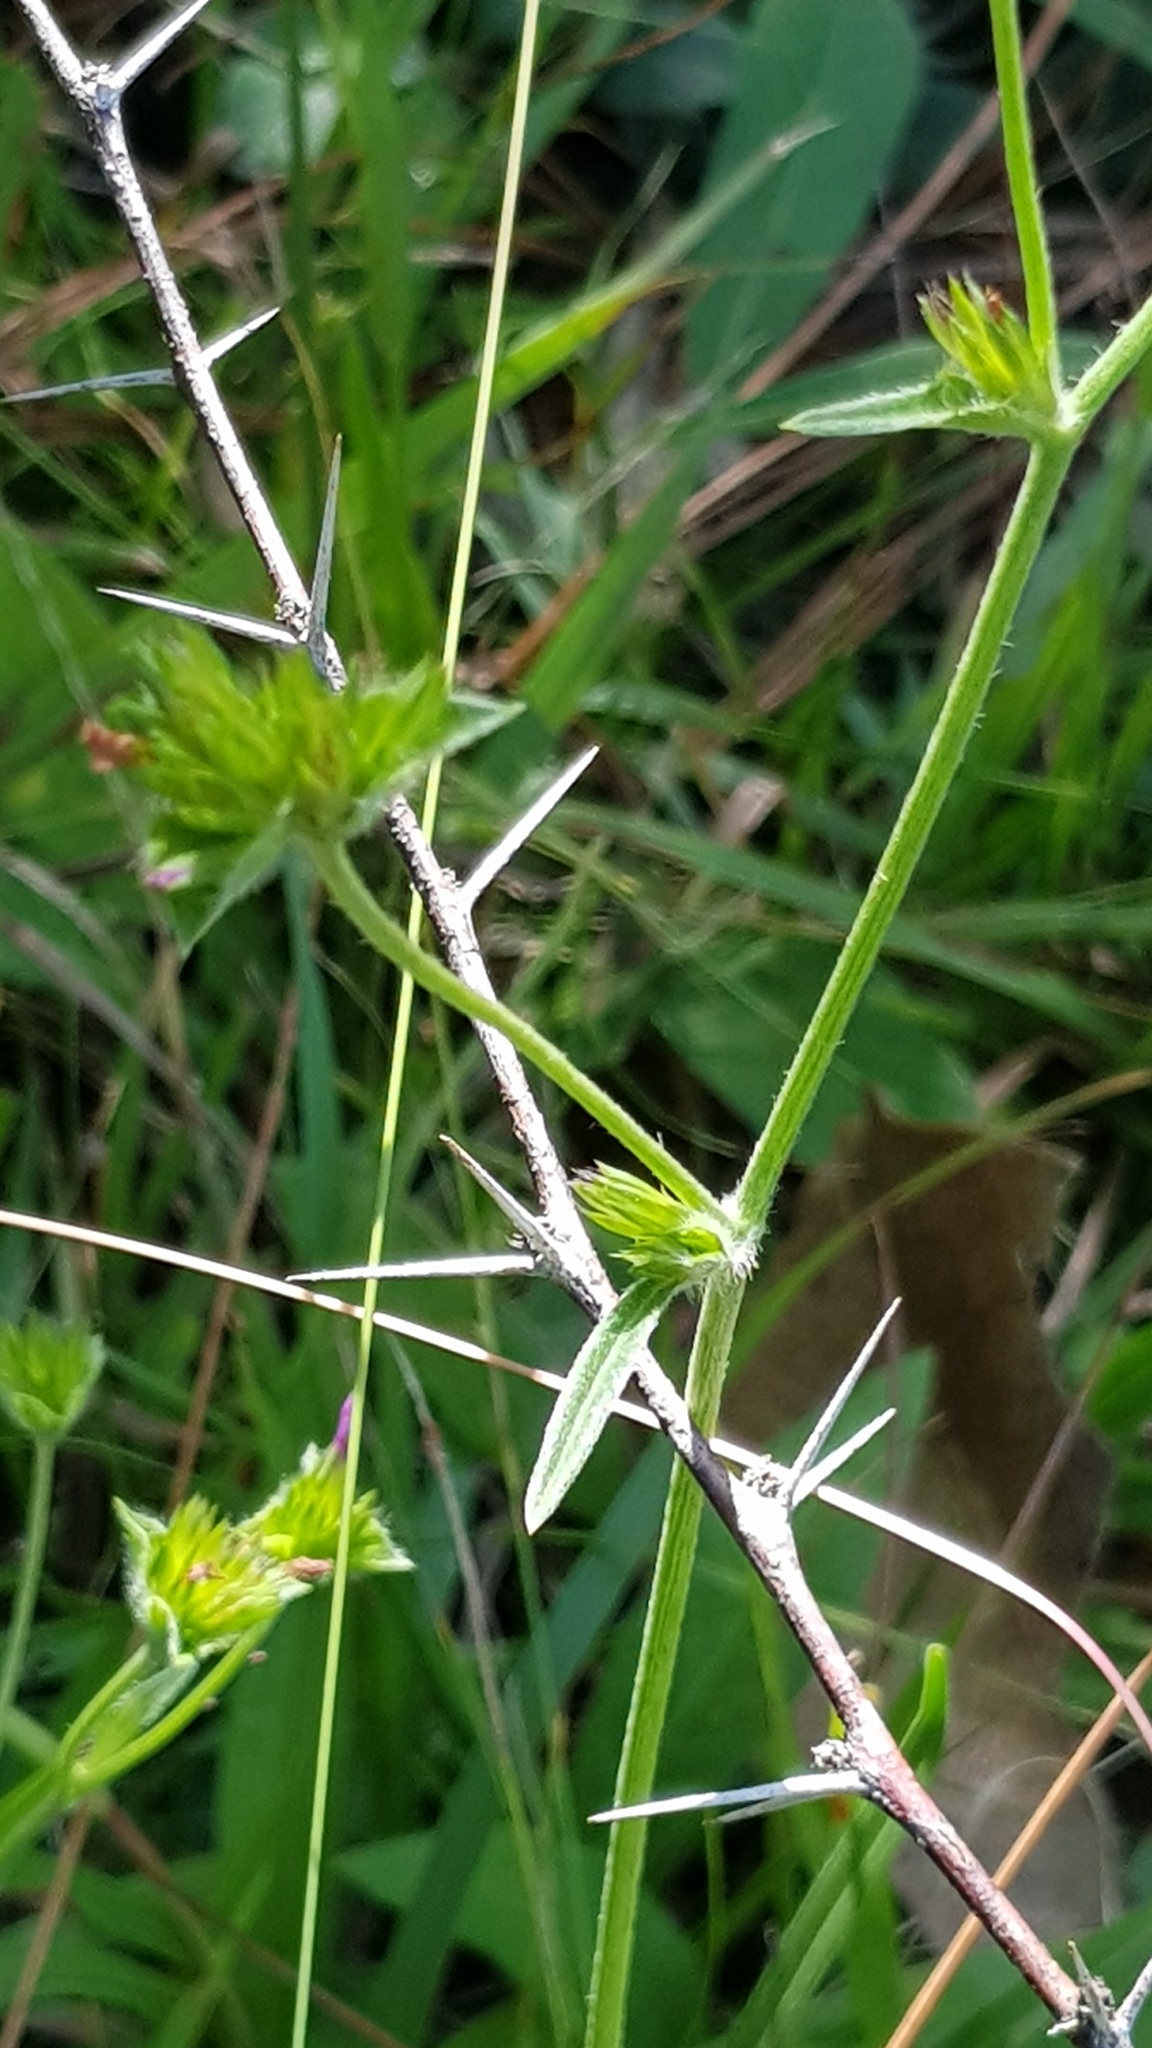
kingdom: Plantae
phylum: Tracheophyta
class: Magnoliopsida
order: Asterales
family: Asteraceae
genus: Elephantopus
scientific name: Elephantopus mollis
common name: Soft elephantsfoot
